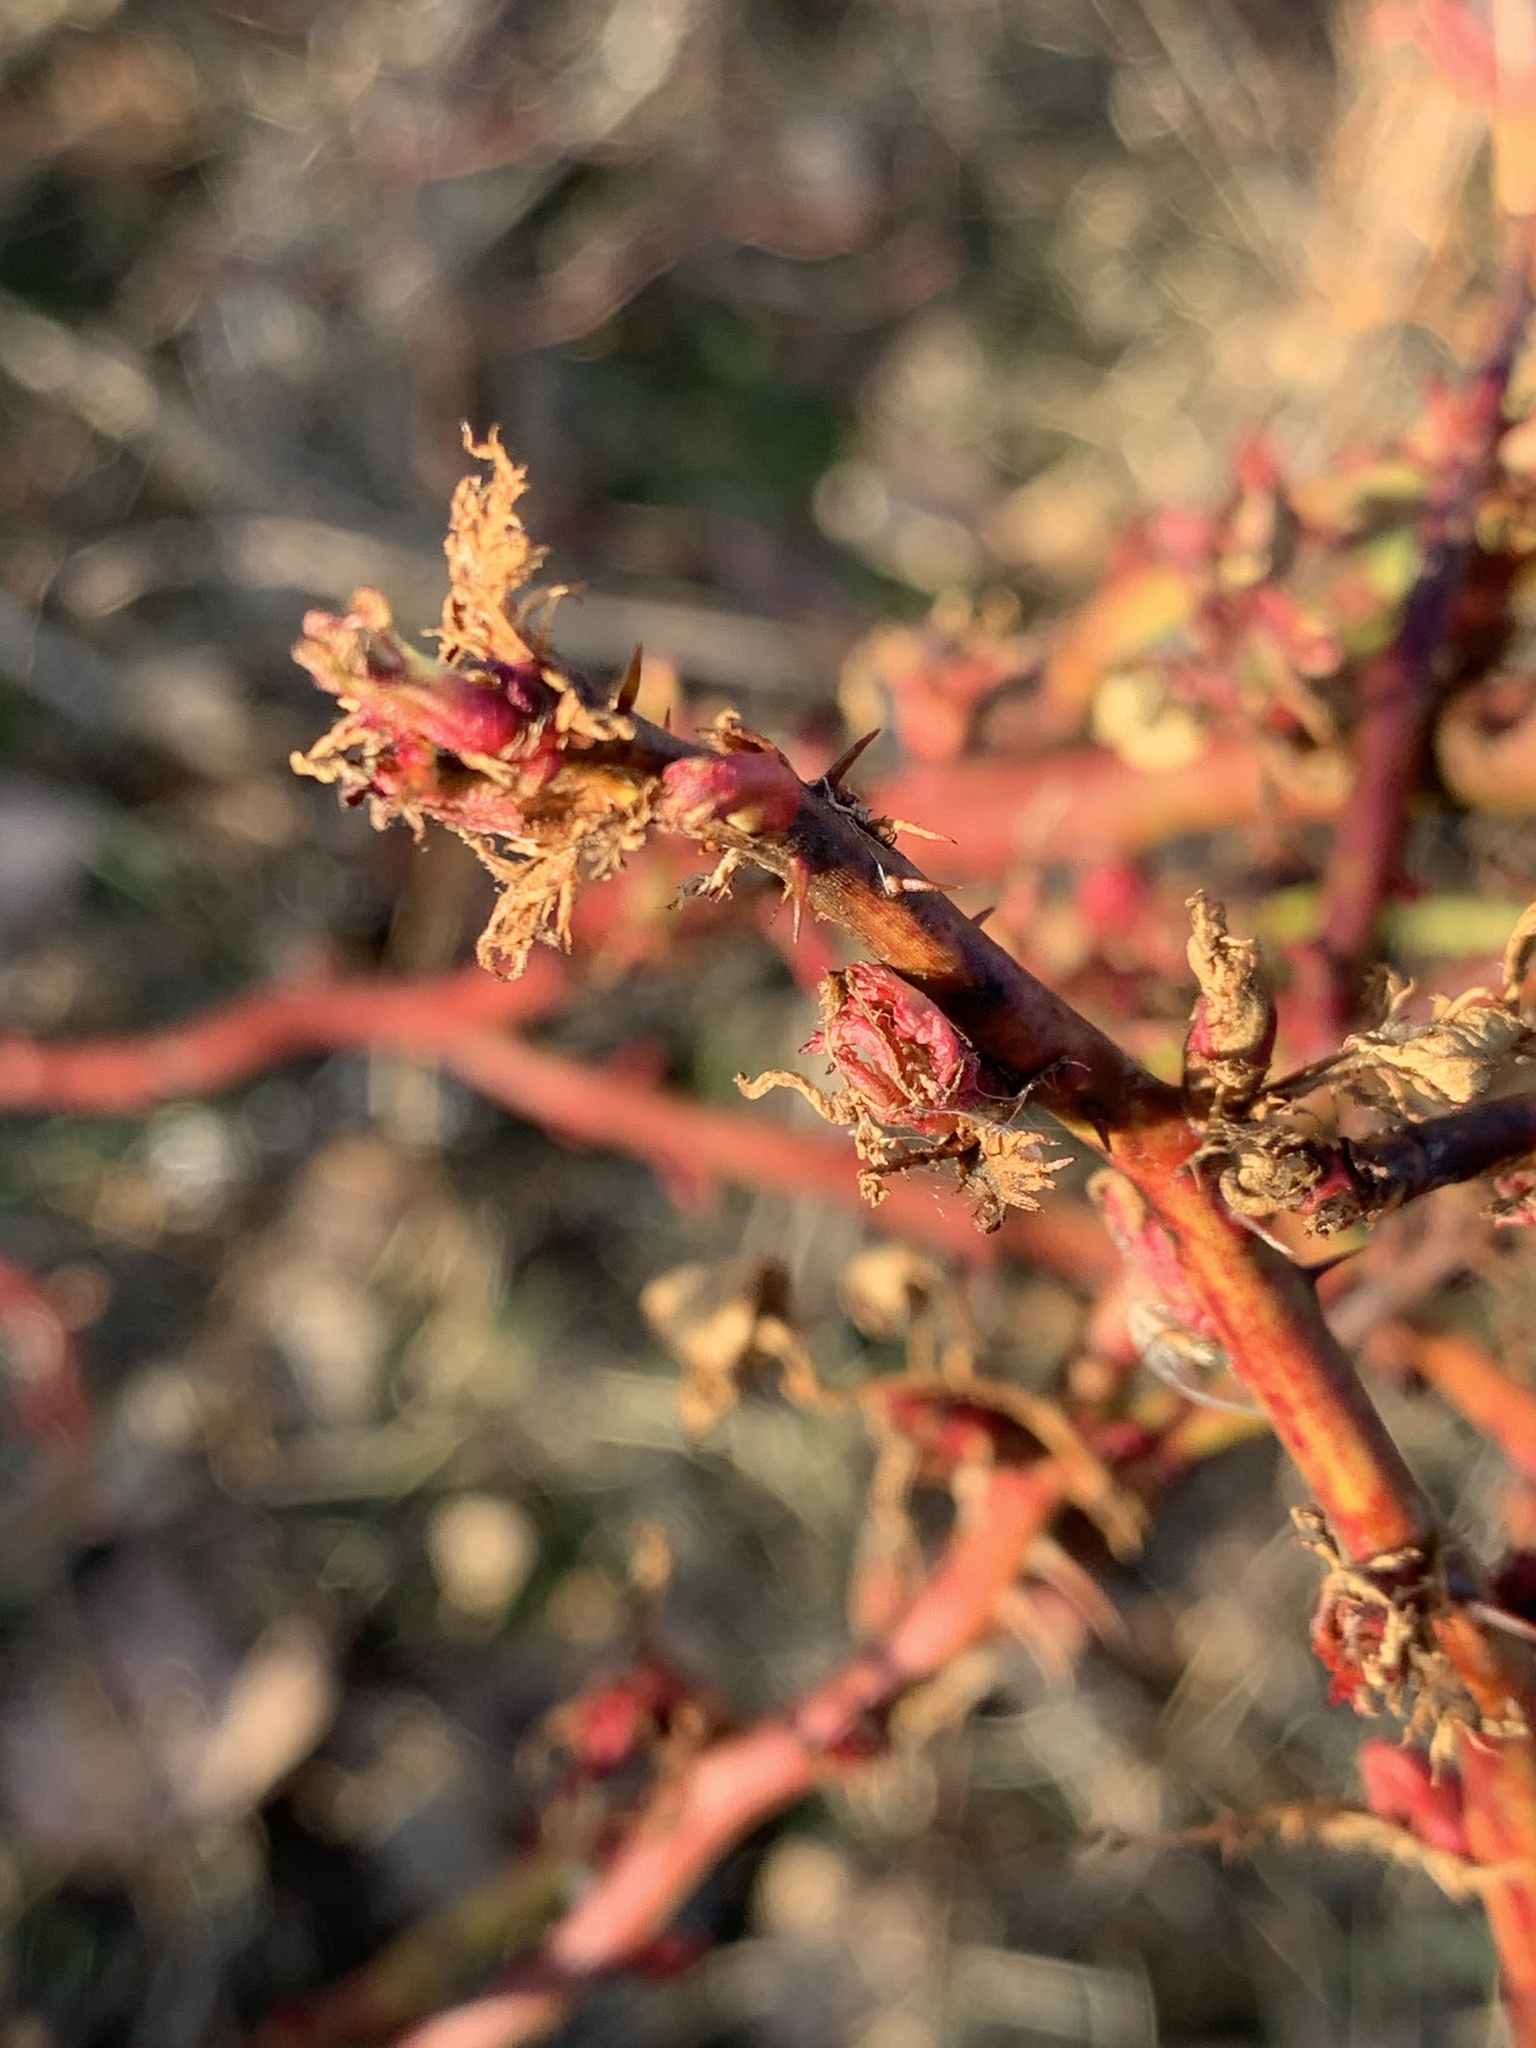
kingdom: Viruses
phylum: Negarnaviricota
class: Ellioviricetes
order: Bunyavirales
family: Fimoviridae
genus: Emaravirus
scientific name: Emaravirus rosae
